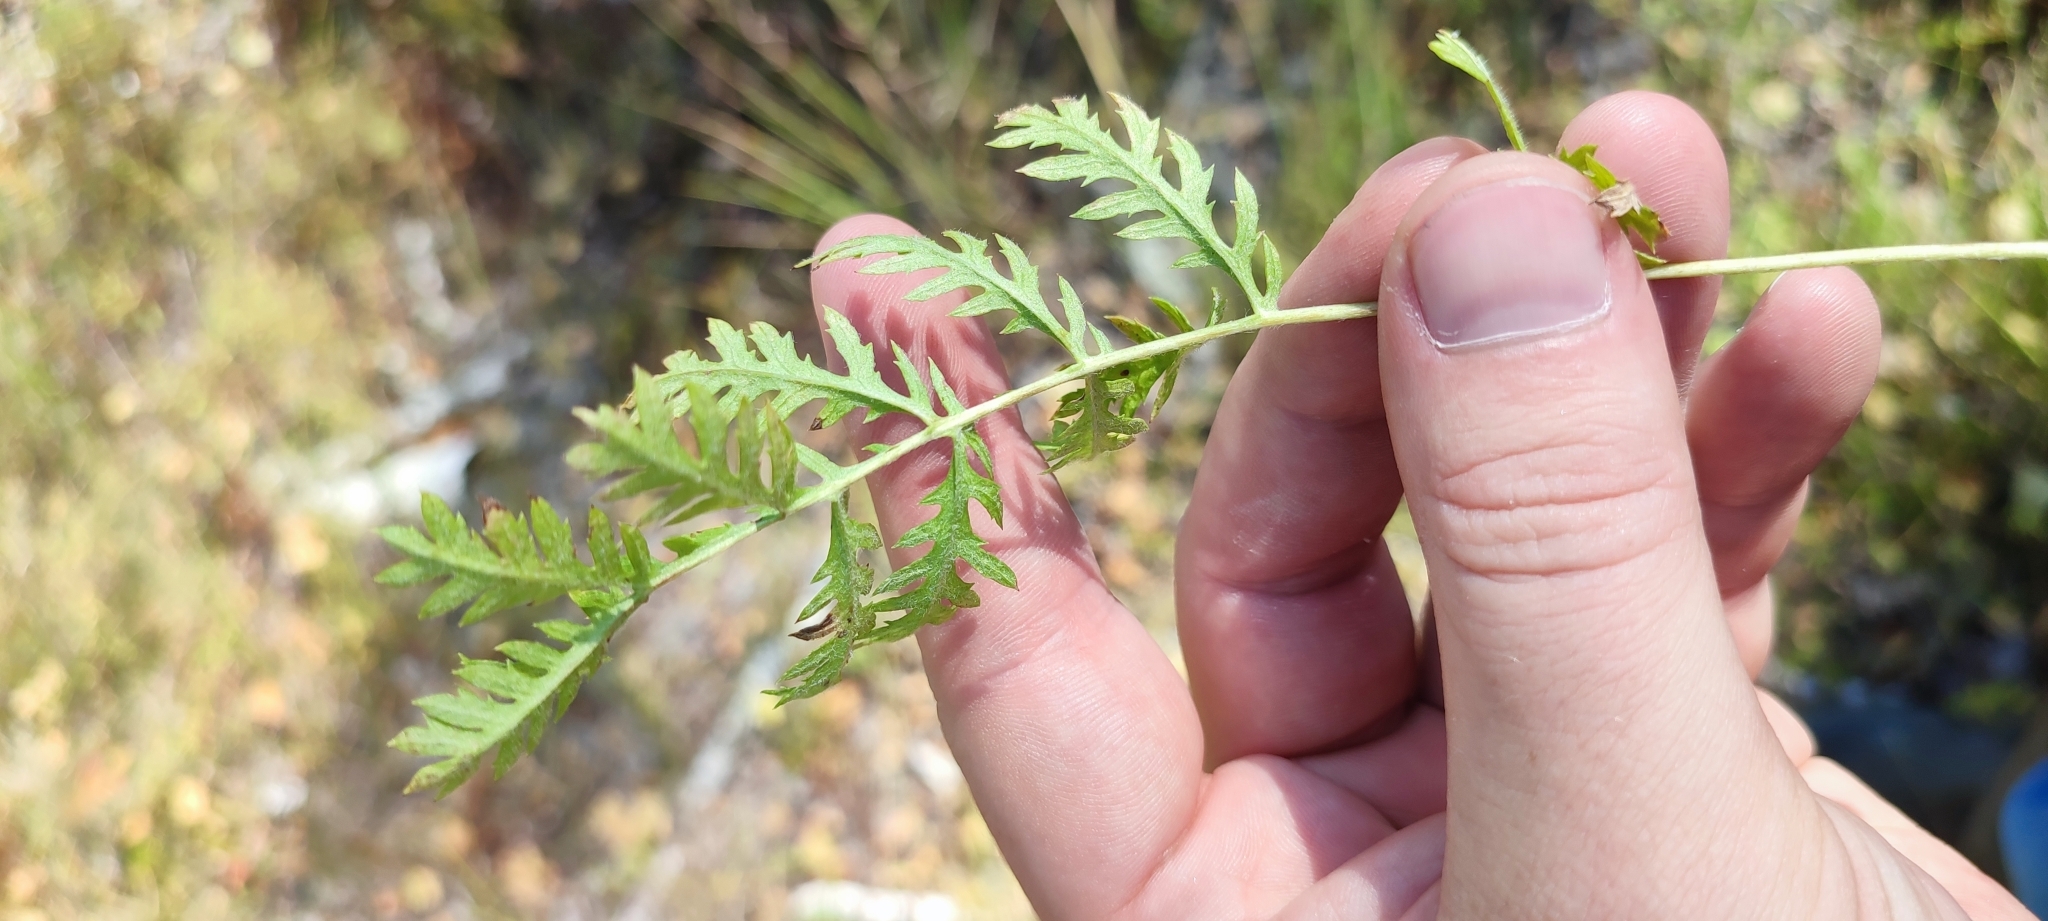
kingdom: Plantae
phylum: Tracheophyta
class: Magnoliopsida
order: Asterales
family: Asteraceae
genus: Tanacetum
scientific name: Tanacetum vulgare
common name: Common tansy
